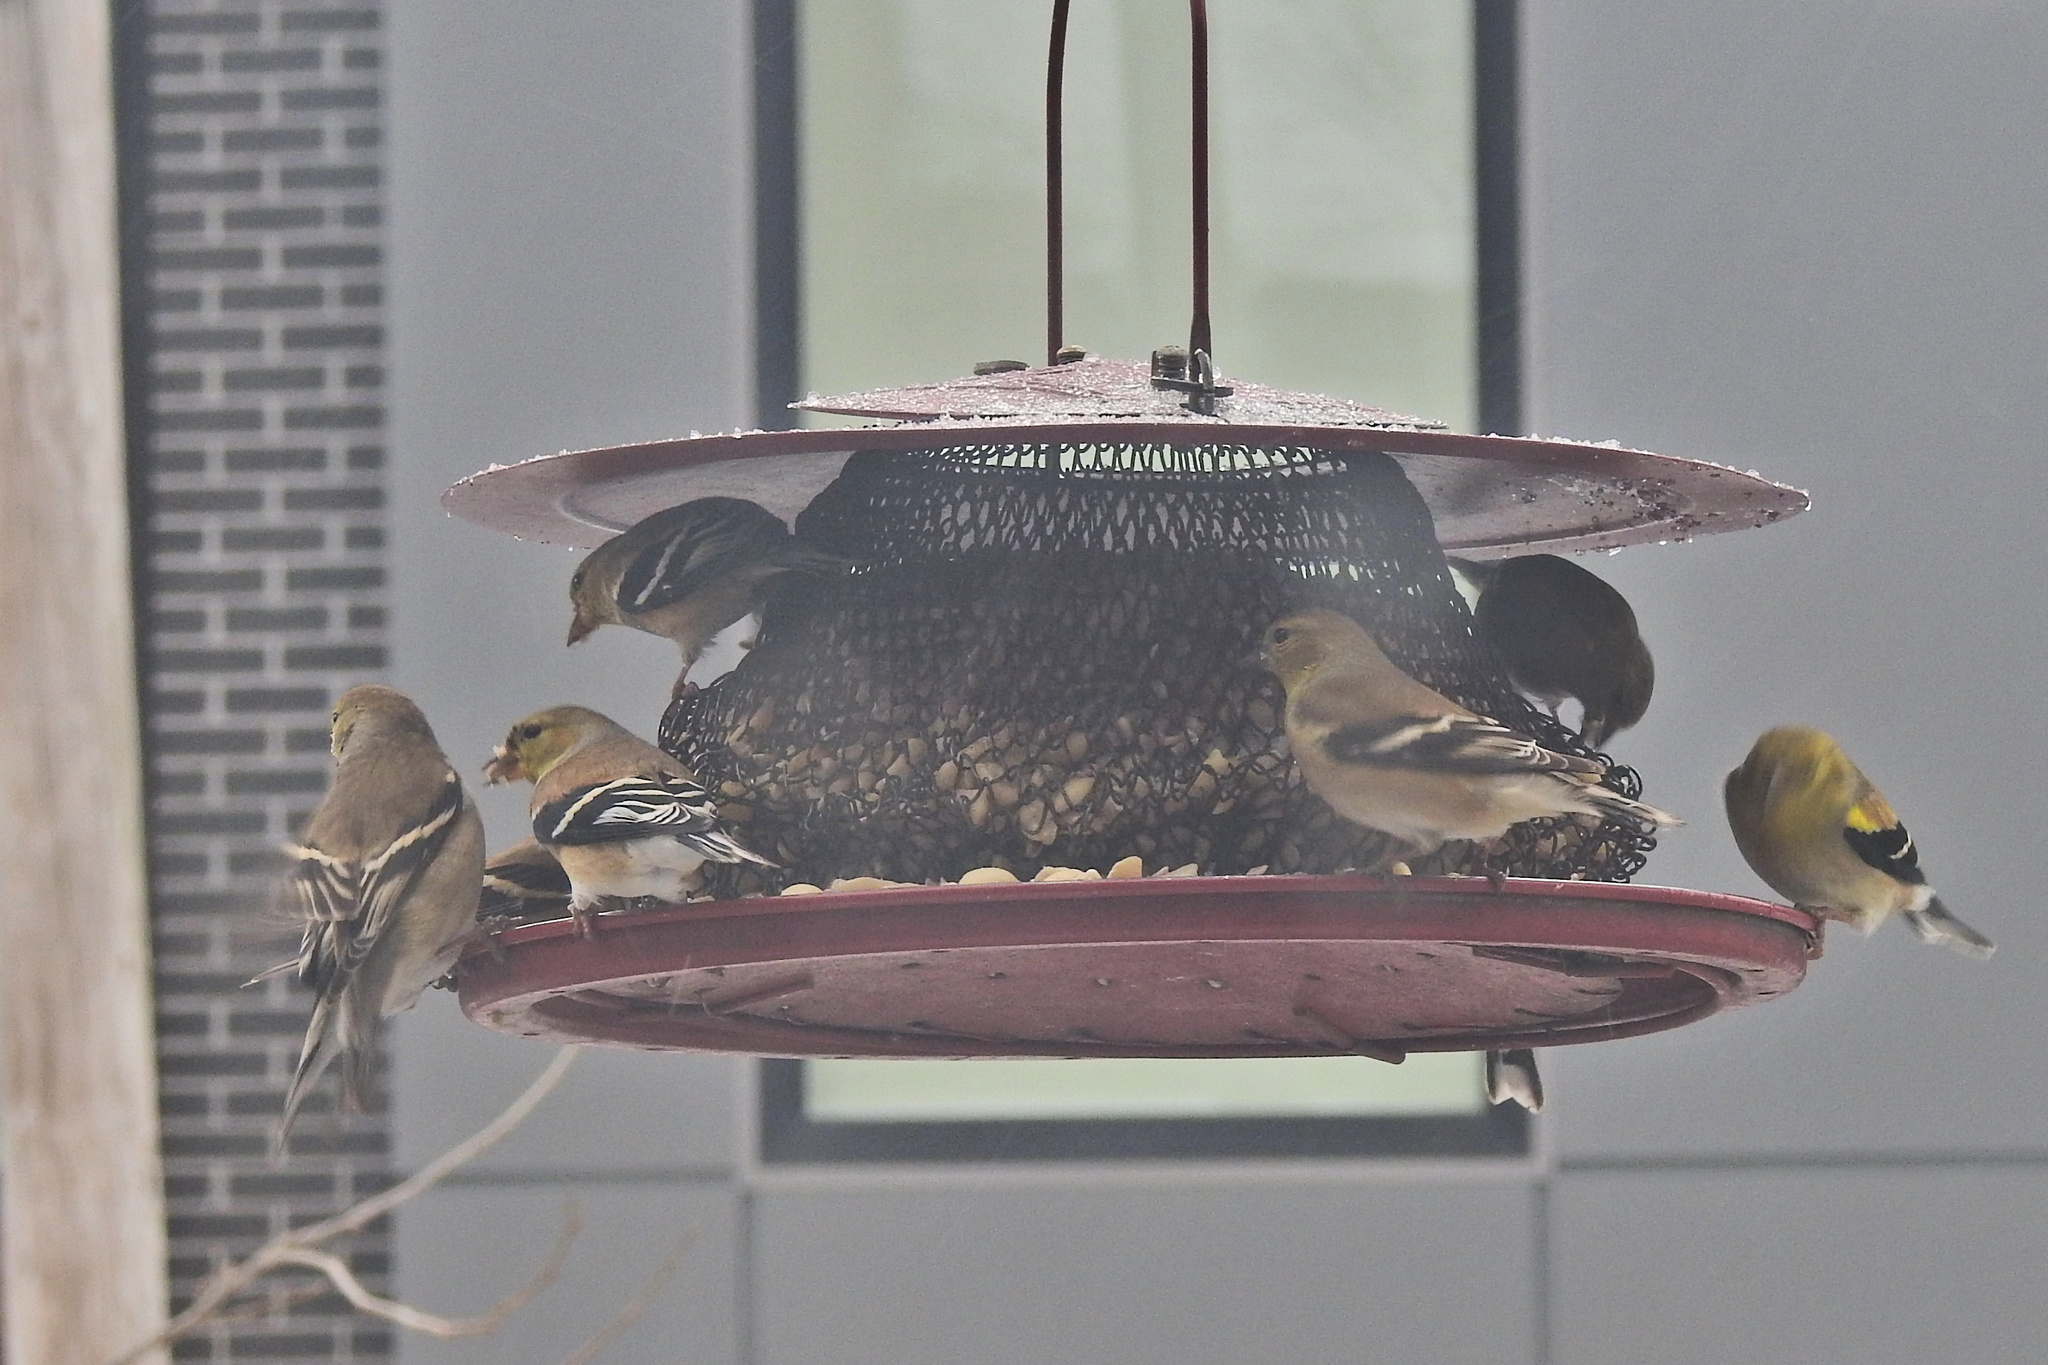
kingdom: Animalia
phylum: Chordata
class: Aves
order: Passeriformes
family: Fringillidae
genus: Spinus
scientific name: Spinus tristis
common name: American goldfinch
